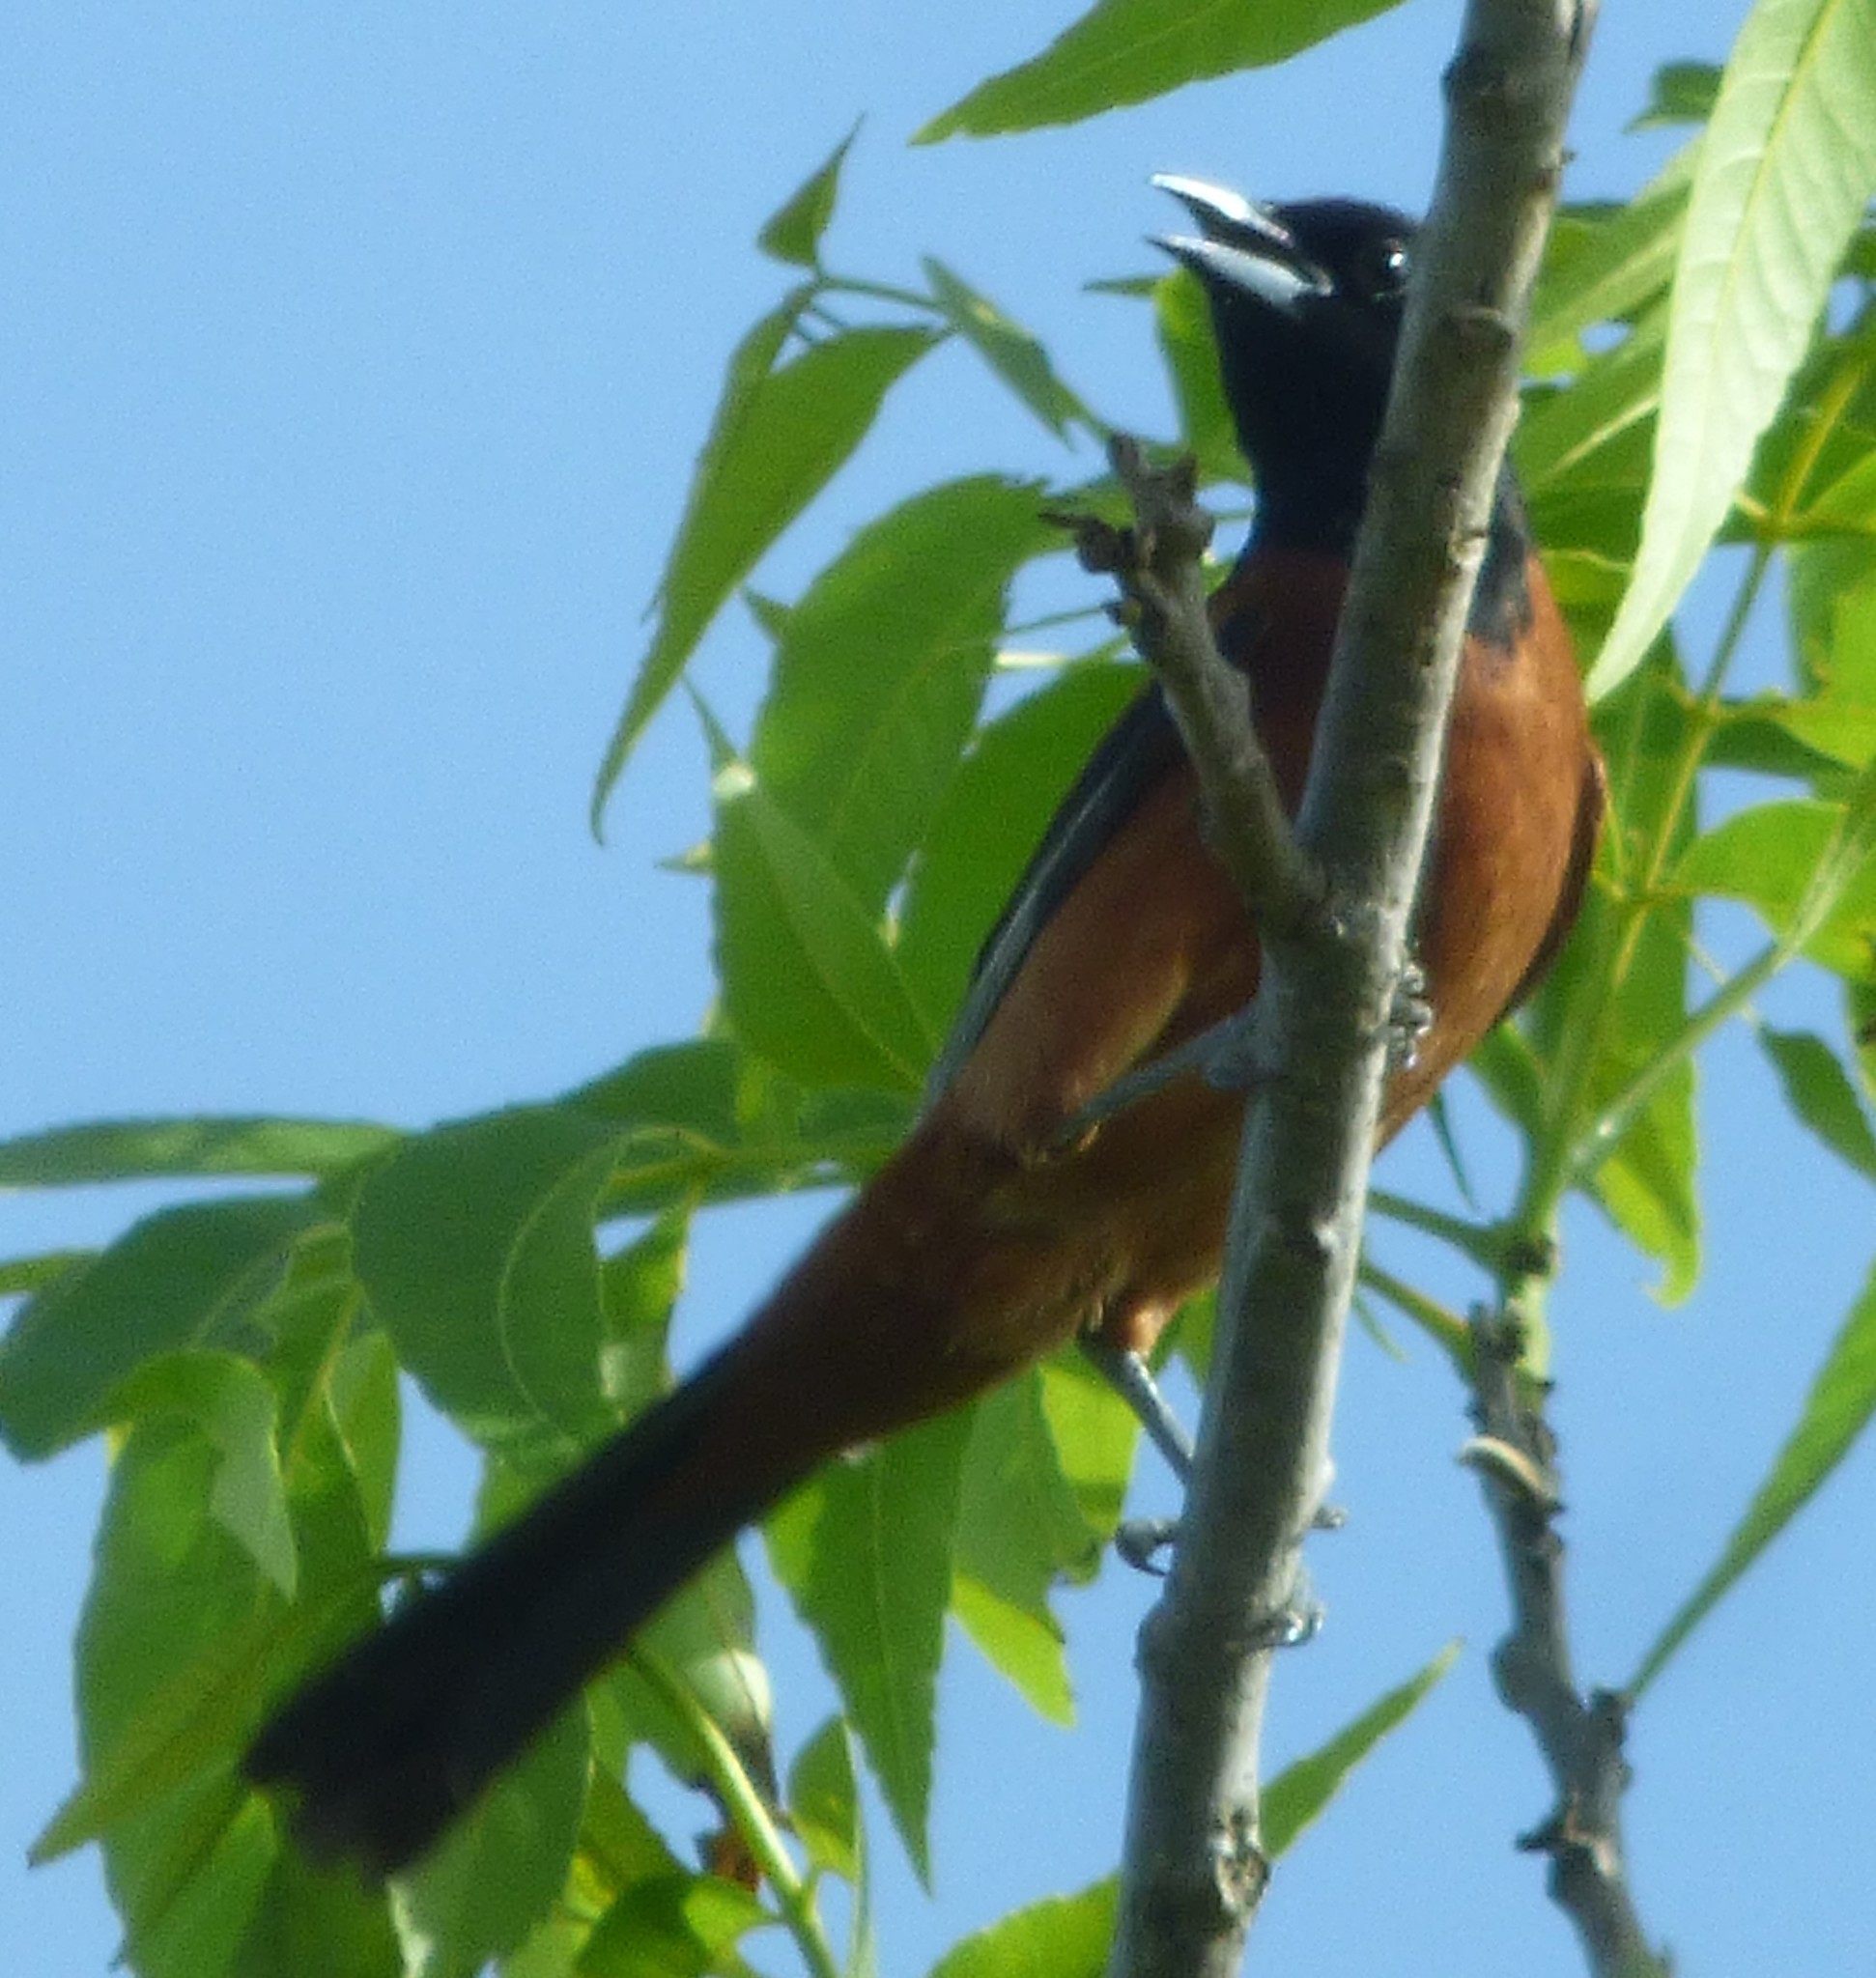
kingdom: Animalia
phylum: Chordata
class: Aves
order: Passeriformes
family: Icteridae
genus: Icterus
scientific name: Icterus spurius
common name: Orchard oriole
